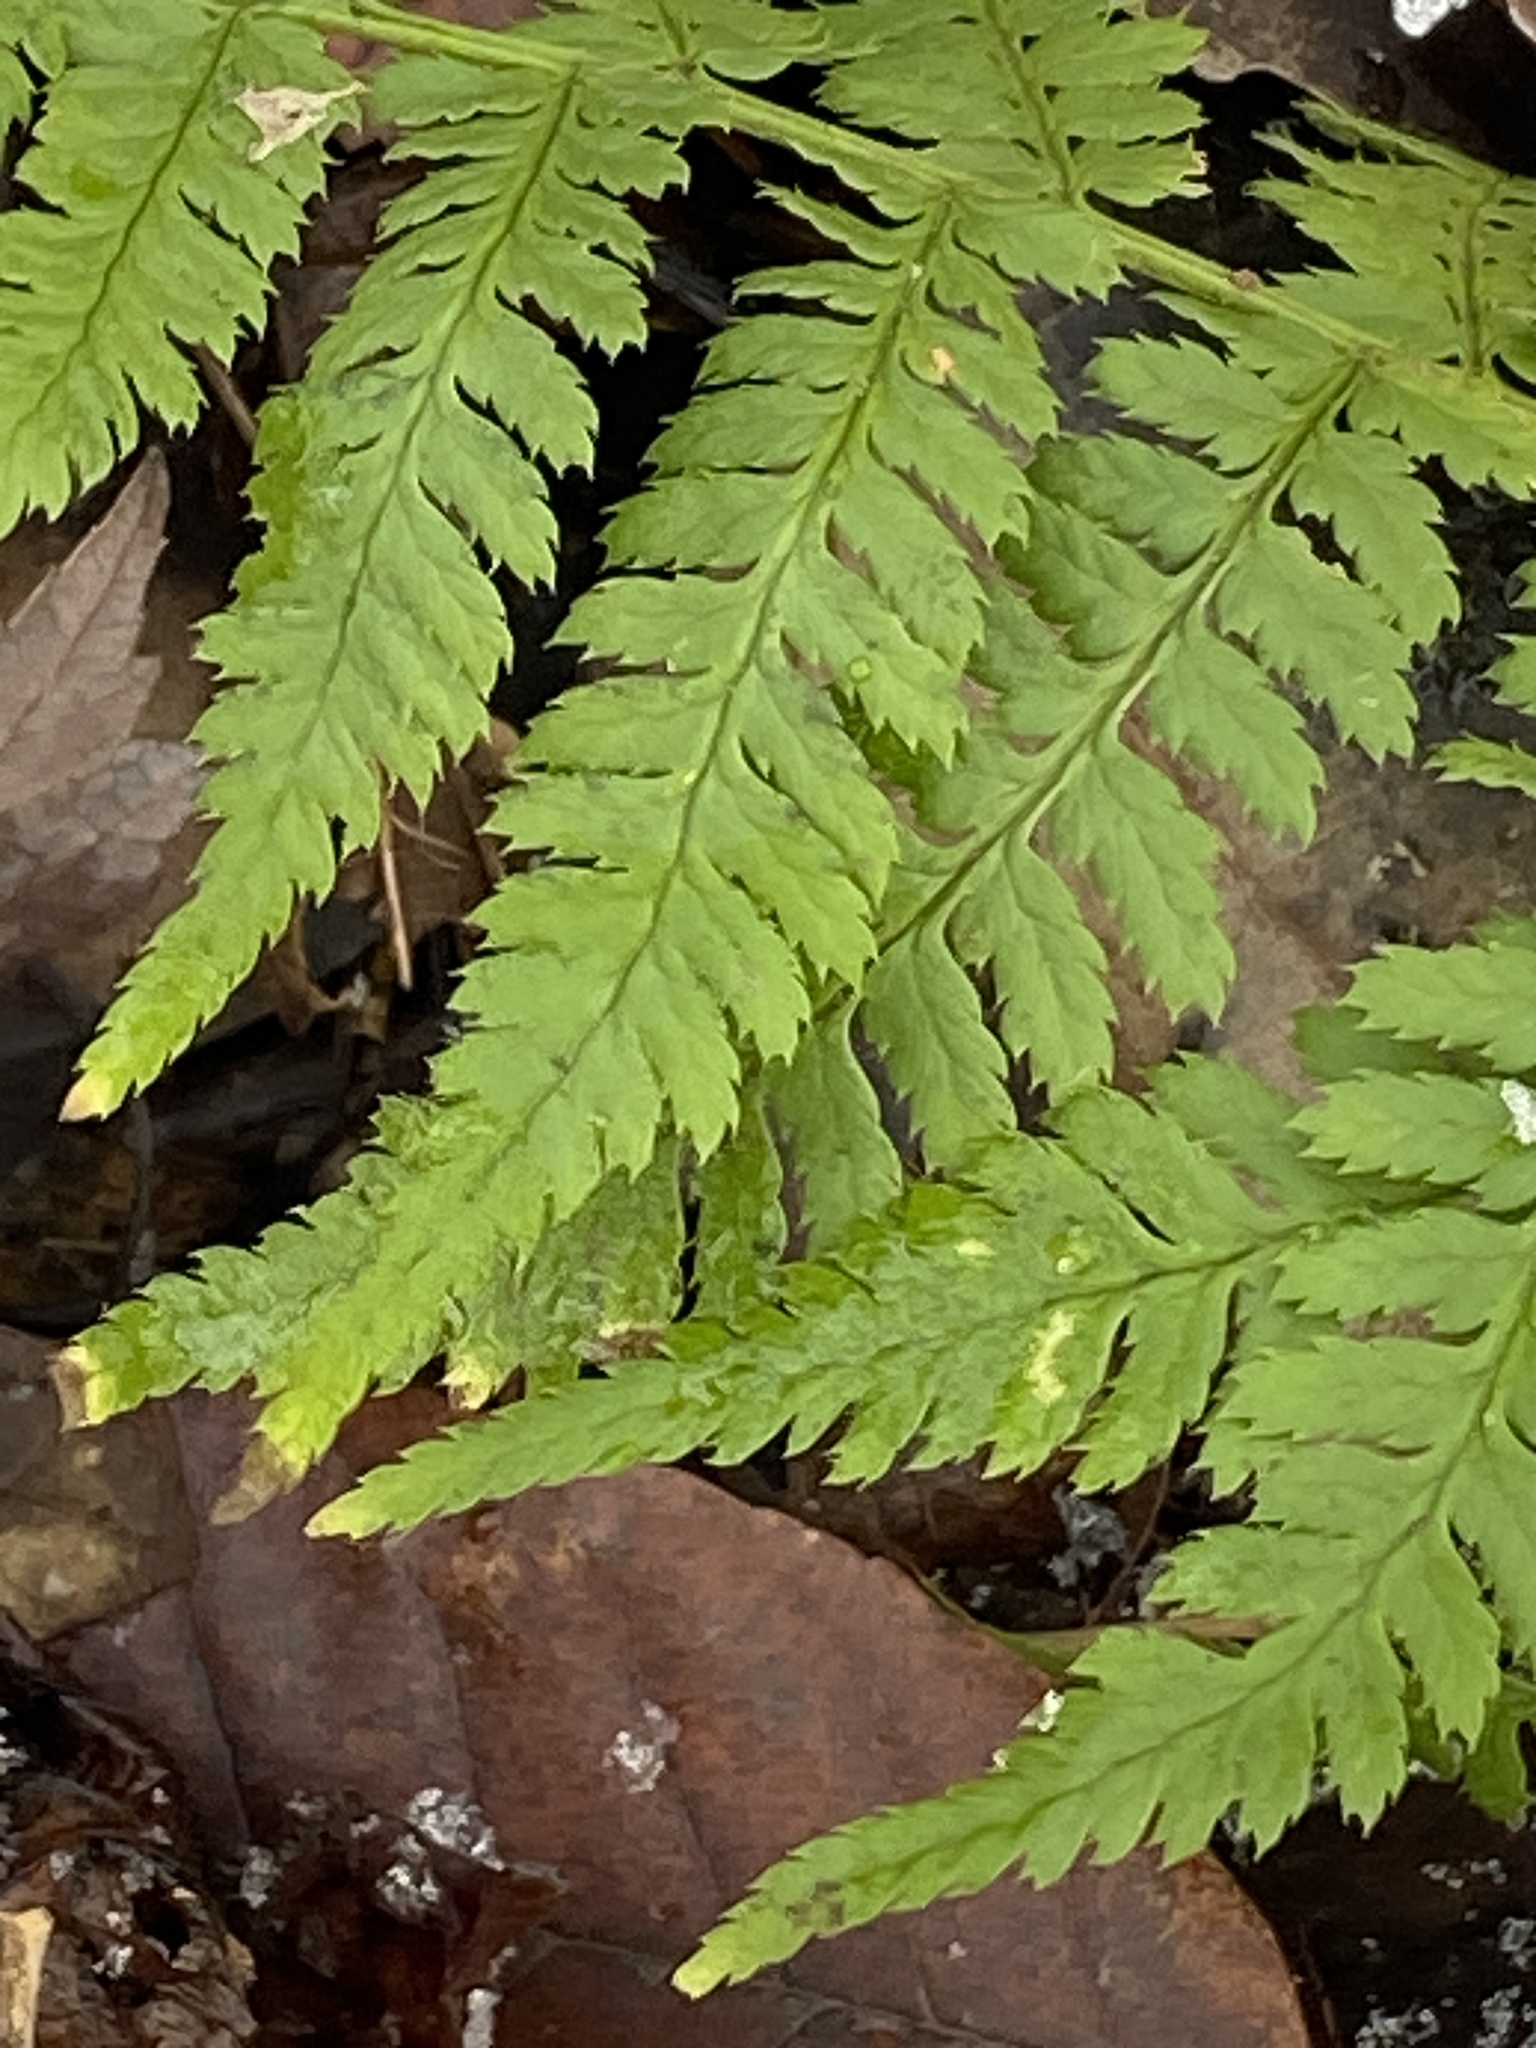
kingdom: Plantae
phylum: Tracheophyta
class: Polypodiopsida
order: Polypodiales
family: Dryopteridaceae
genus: Dryopteris
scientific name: Dryopteris carthusiana
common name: Narrow buckler-fern
